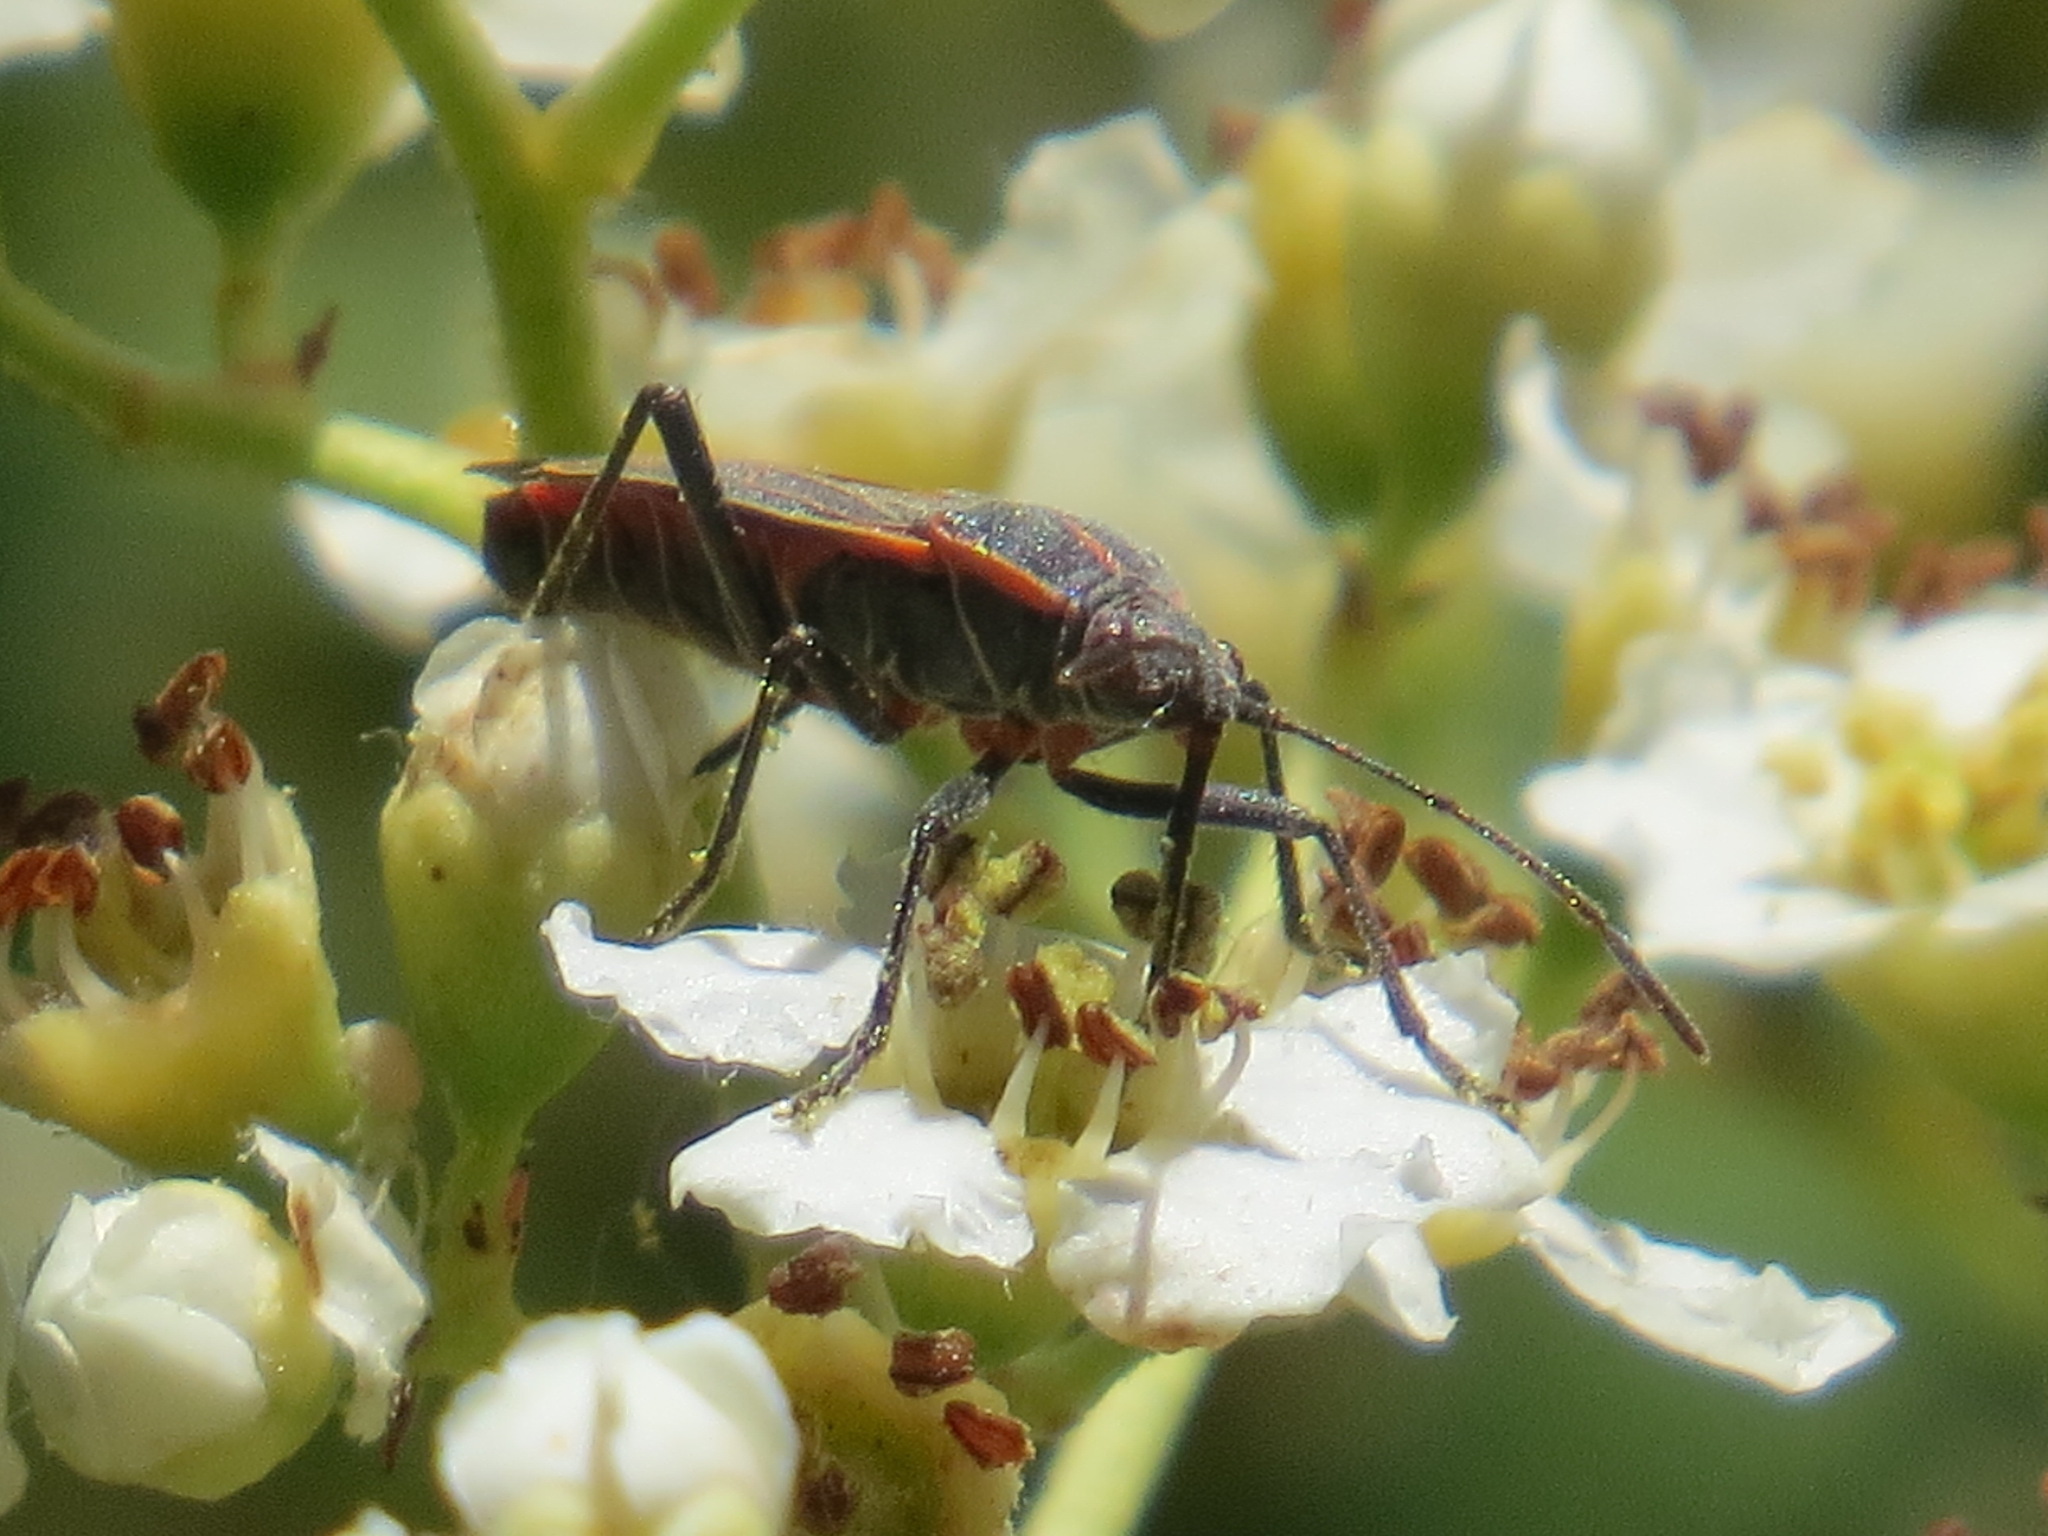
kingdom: Animalia
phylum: Arthropoda
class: Insecta
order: Hemiptera
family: Rhopalidae
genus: Boisea
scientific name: Boisea rubrolineata
